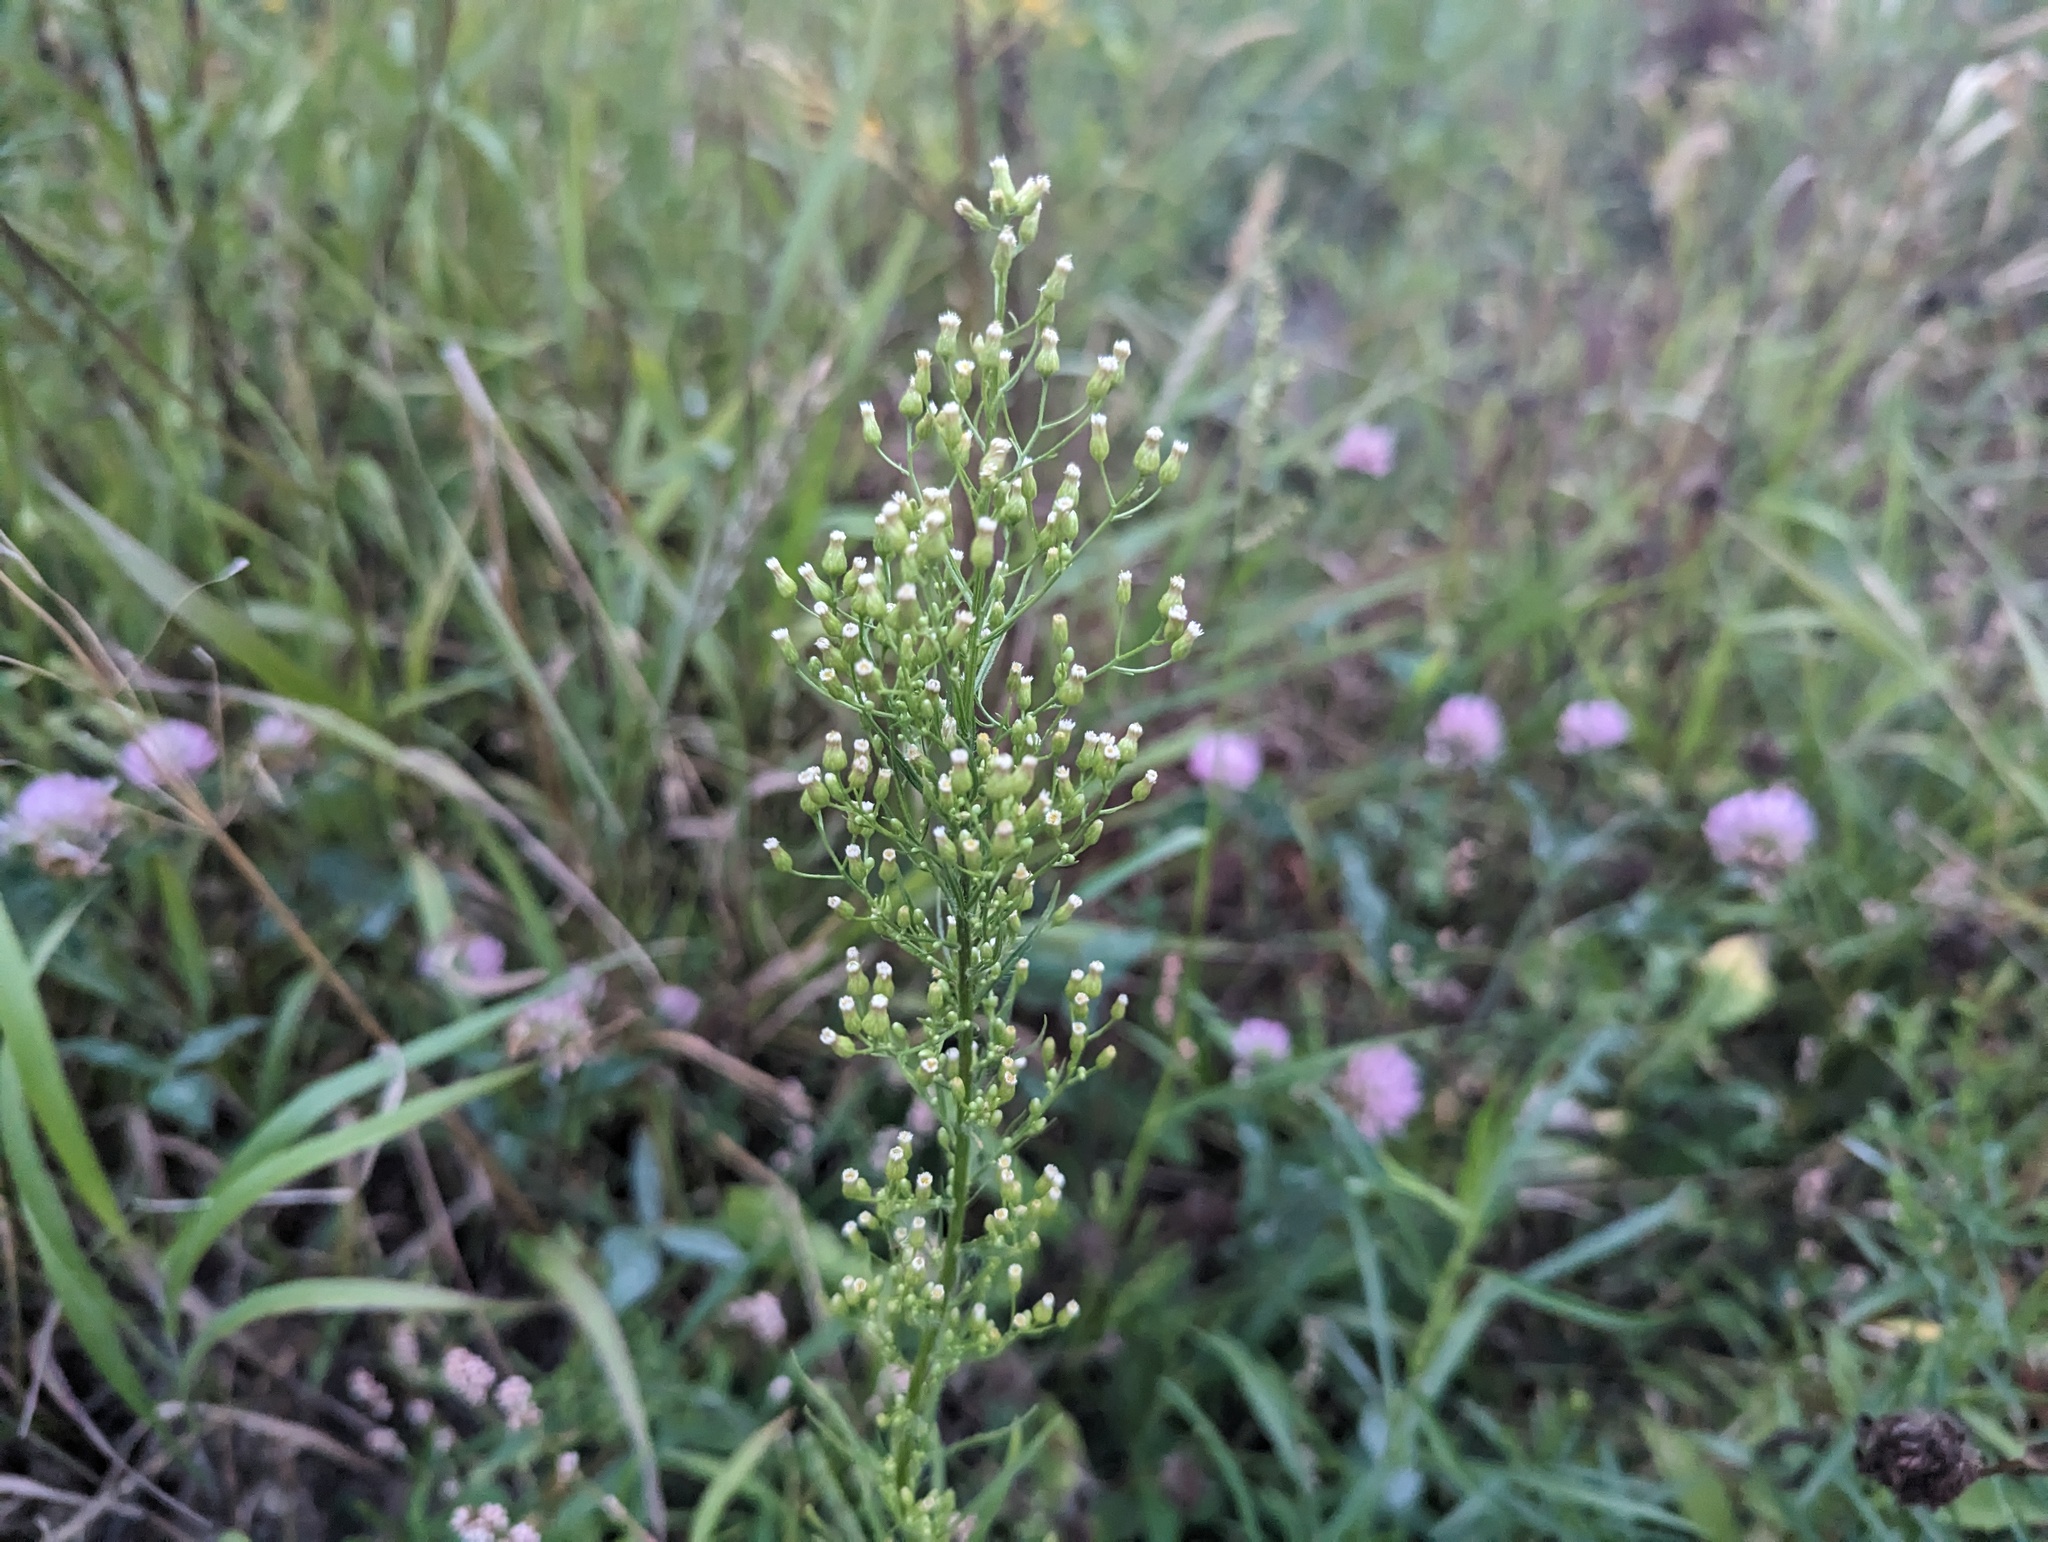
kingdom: Plantae
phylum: Tracheophyta
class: Magnoliopsida
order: Asterales
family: Asteraceae
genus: Erigeron
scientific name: Erigeron canadensis
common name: Canadian fleabane
